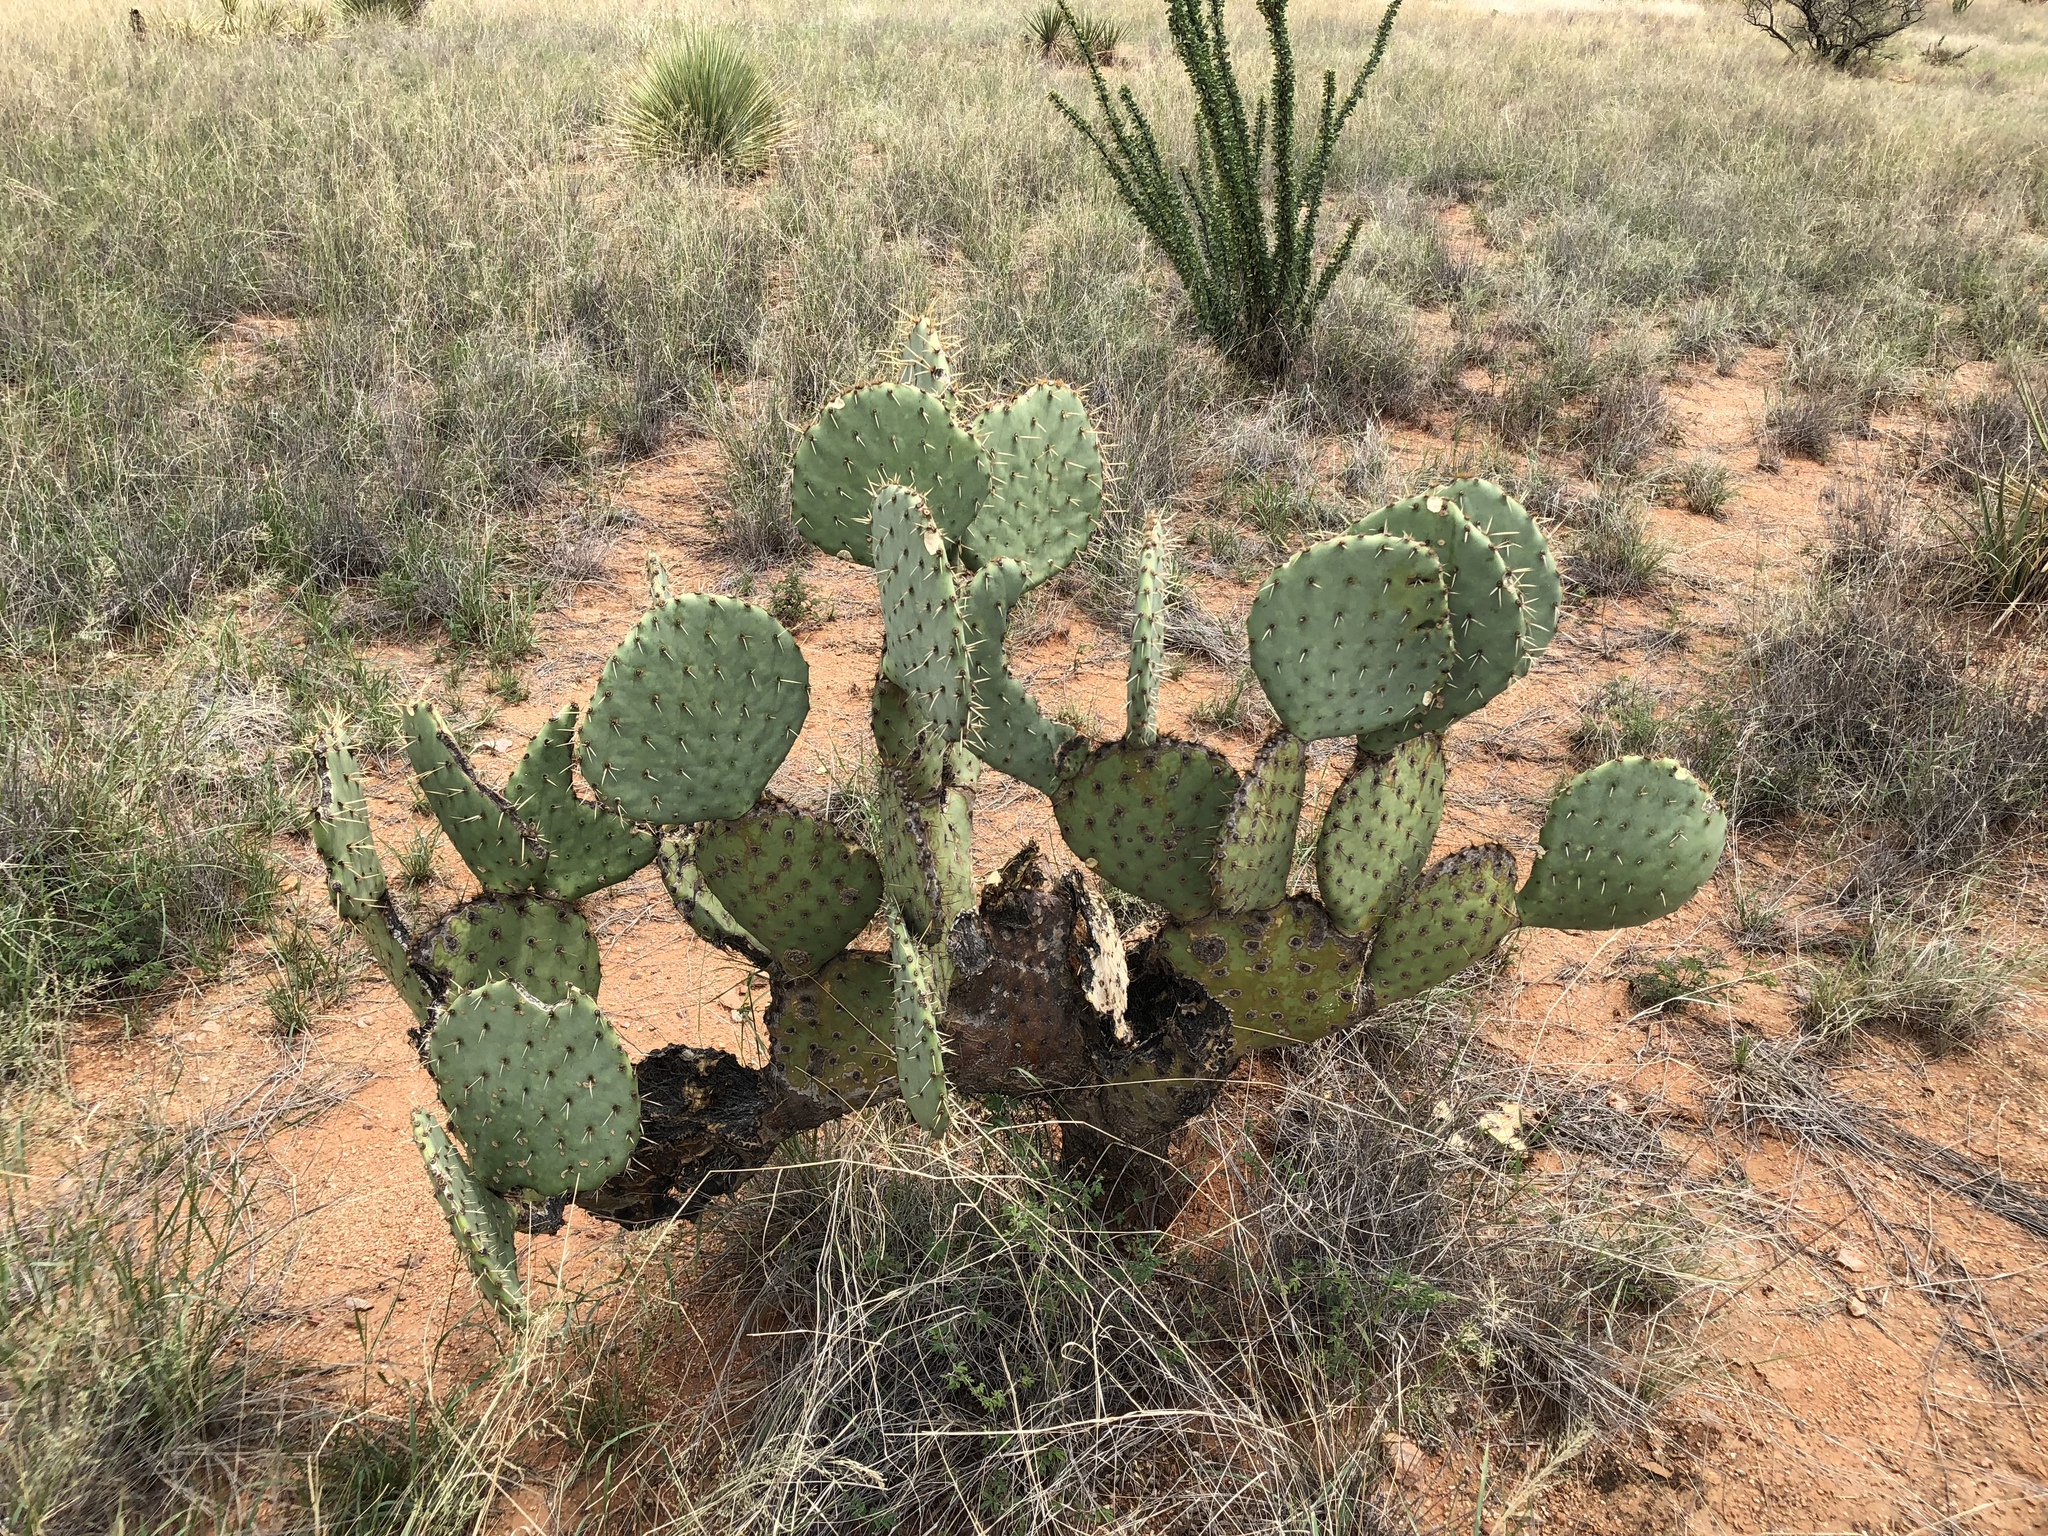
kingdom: Plantae
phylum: Tracheophyta
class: Magnoliopsida
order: Caryophyllales
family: Cactaceae
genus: Opuntia
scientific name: Opuntia engelmannii
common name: Cactus-apple
